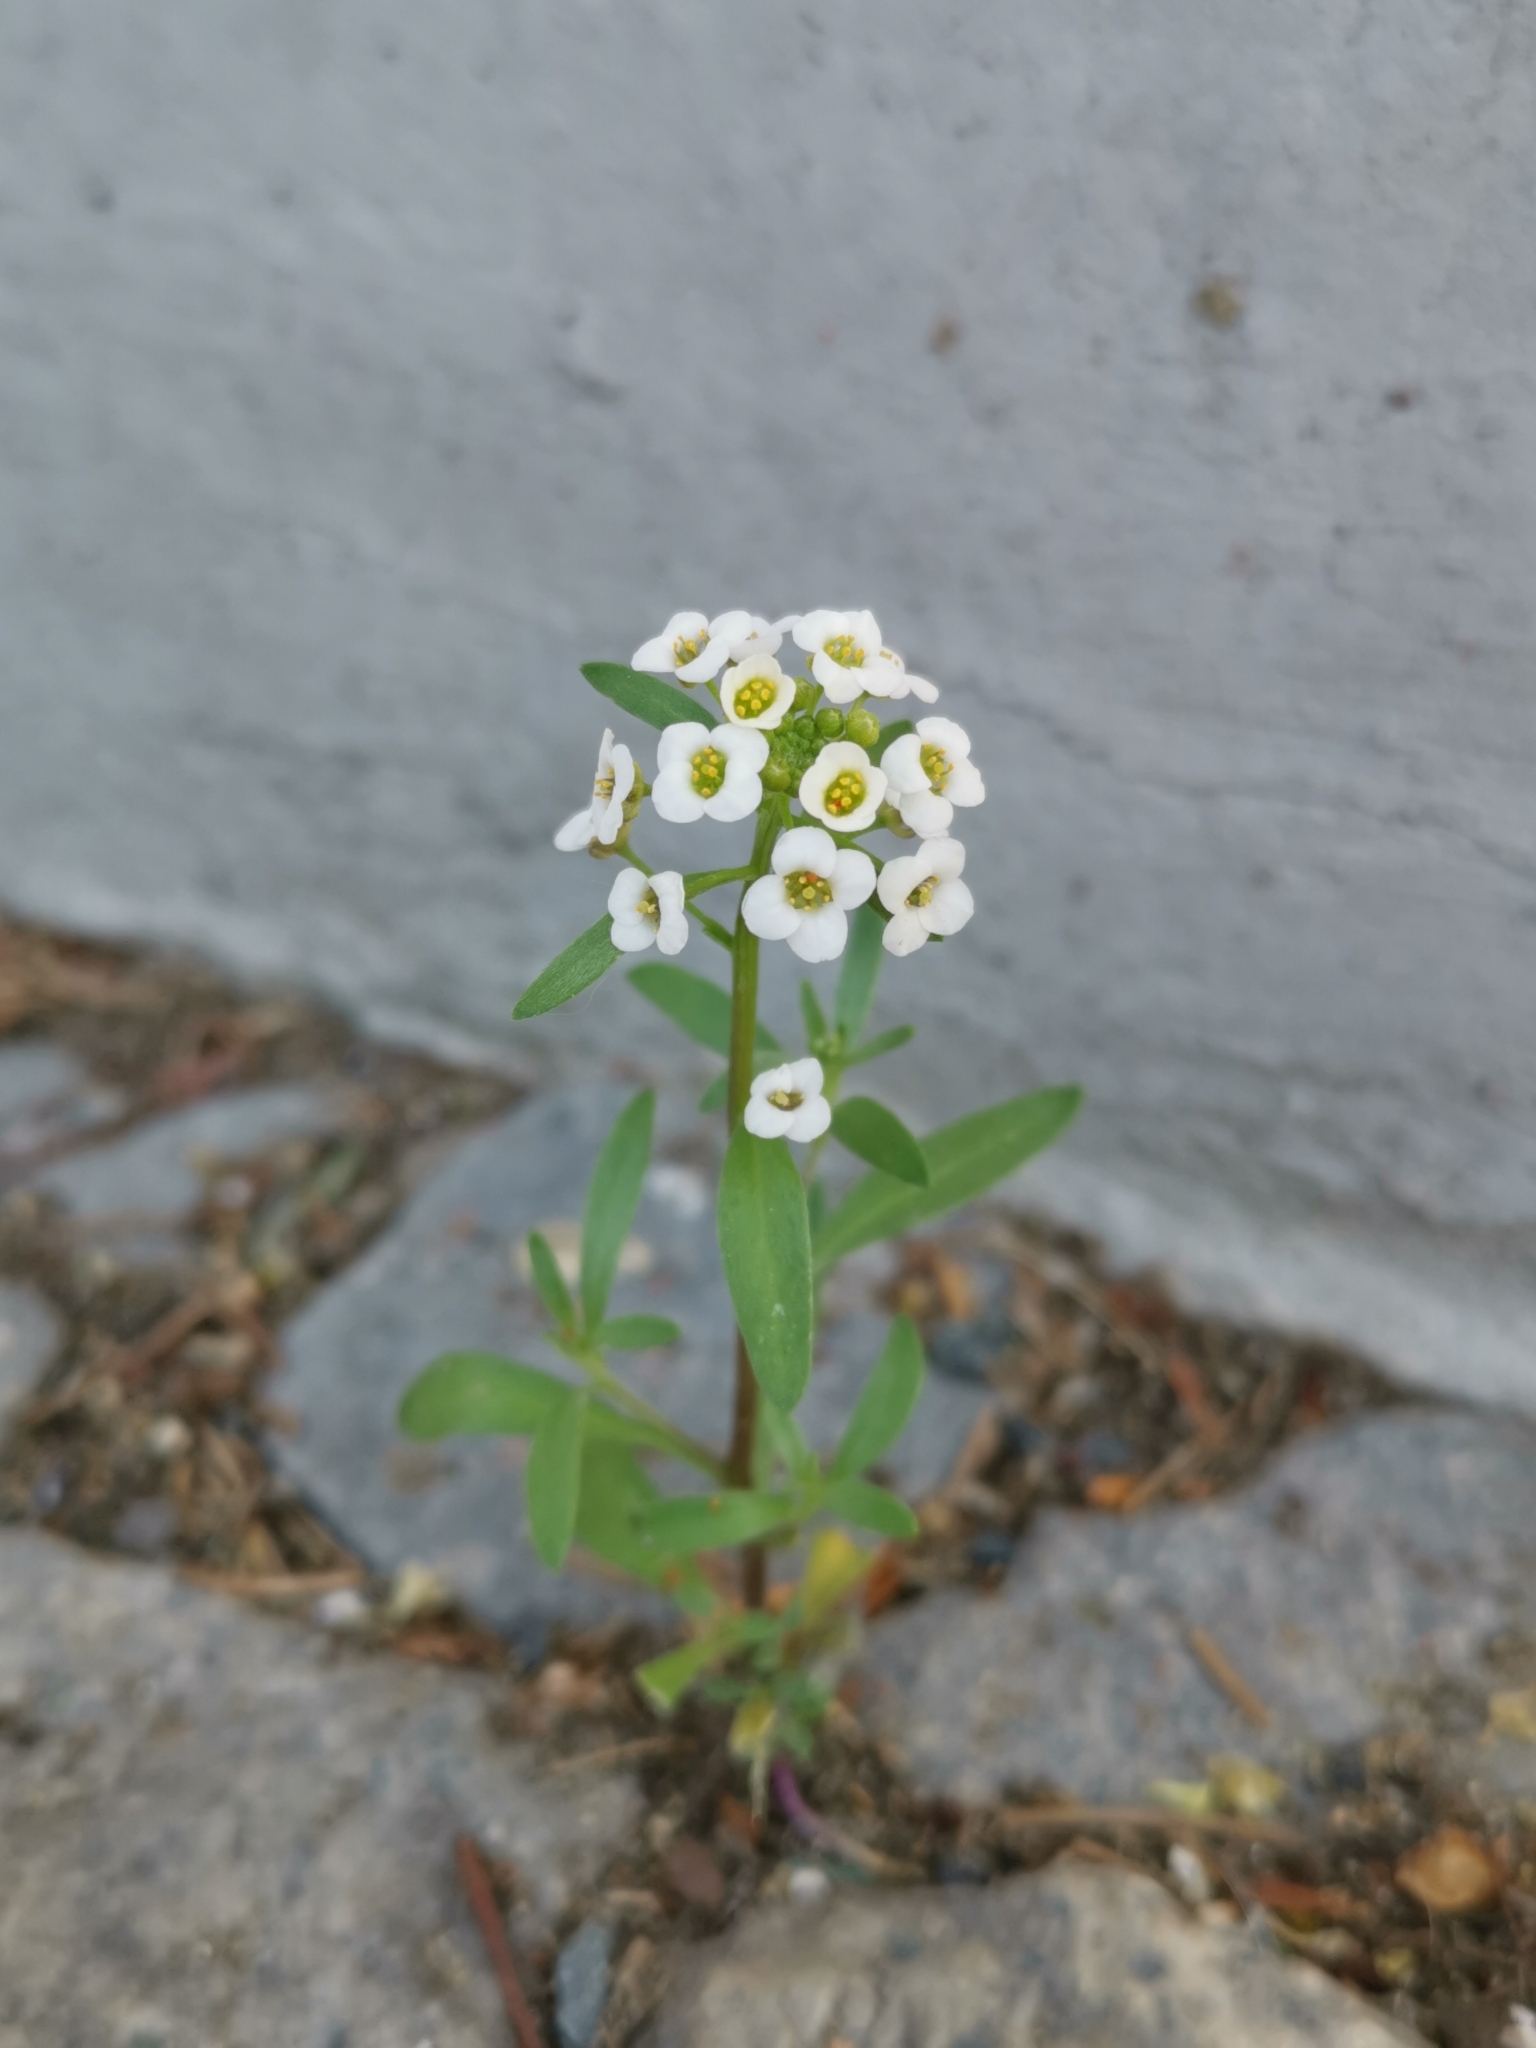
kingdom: Plantae
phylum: Tracheophyta
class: Magnoliopsida
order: Brassicales
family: Brassicaceae
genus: Lobularia
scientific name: Lobularia maritima
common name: Sweet alison
